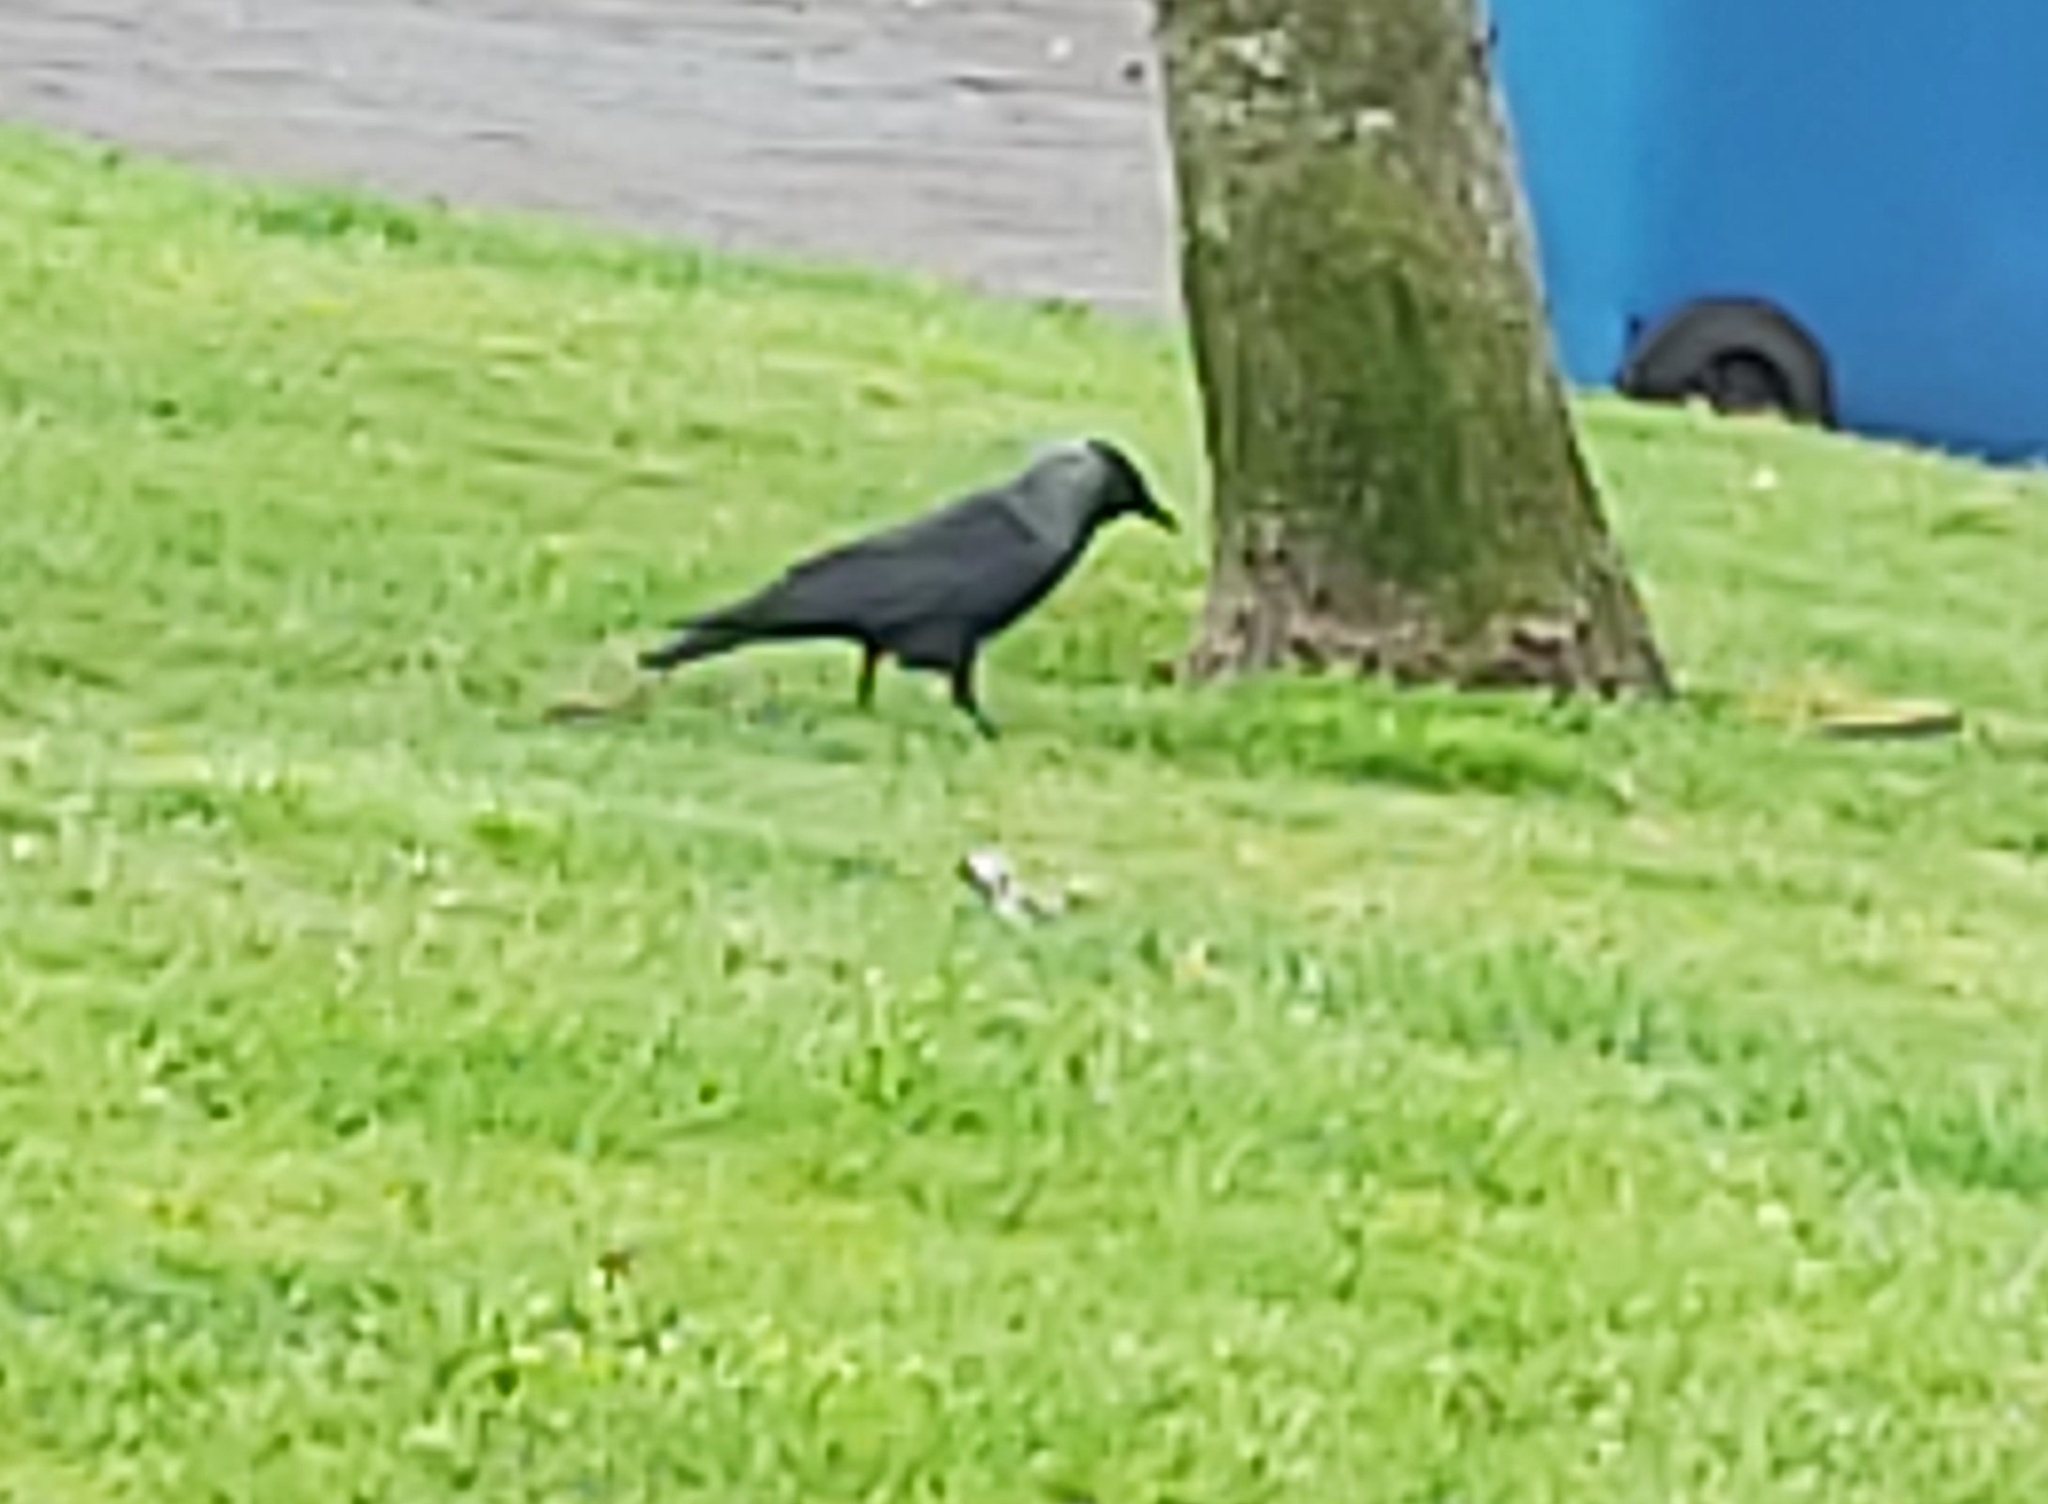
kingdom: Animalia
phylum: Chordata
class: Aves
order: Passeriformes
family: Corvidae
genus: Coloeus
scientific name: Coloeus monedula
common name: Western jackdaw
